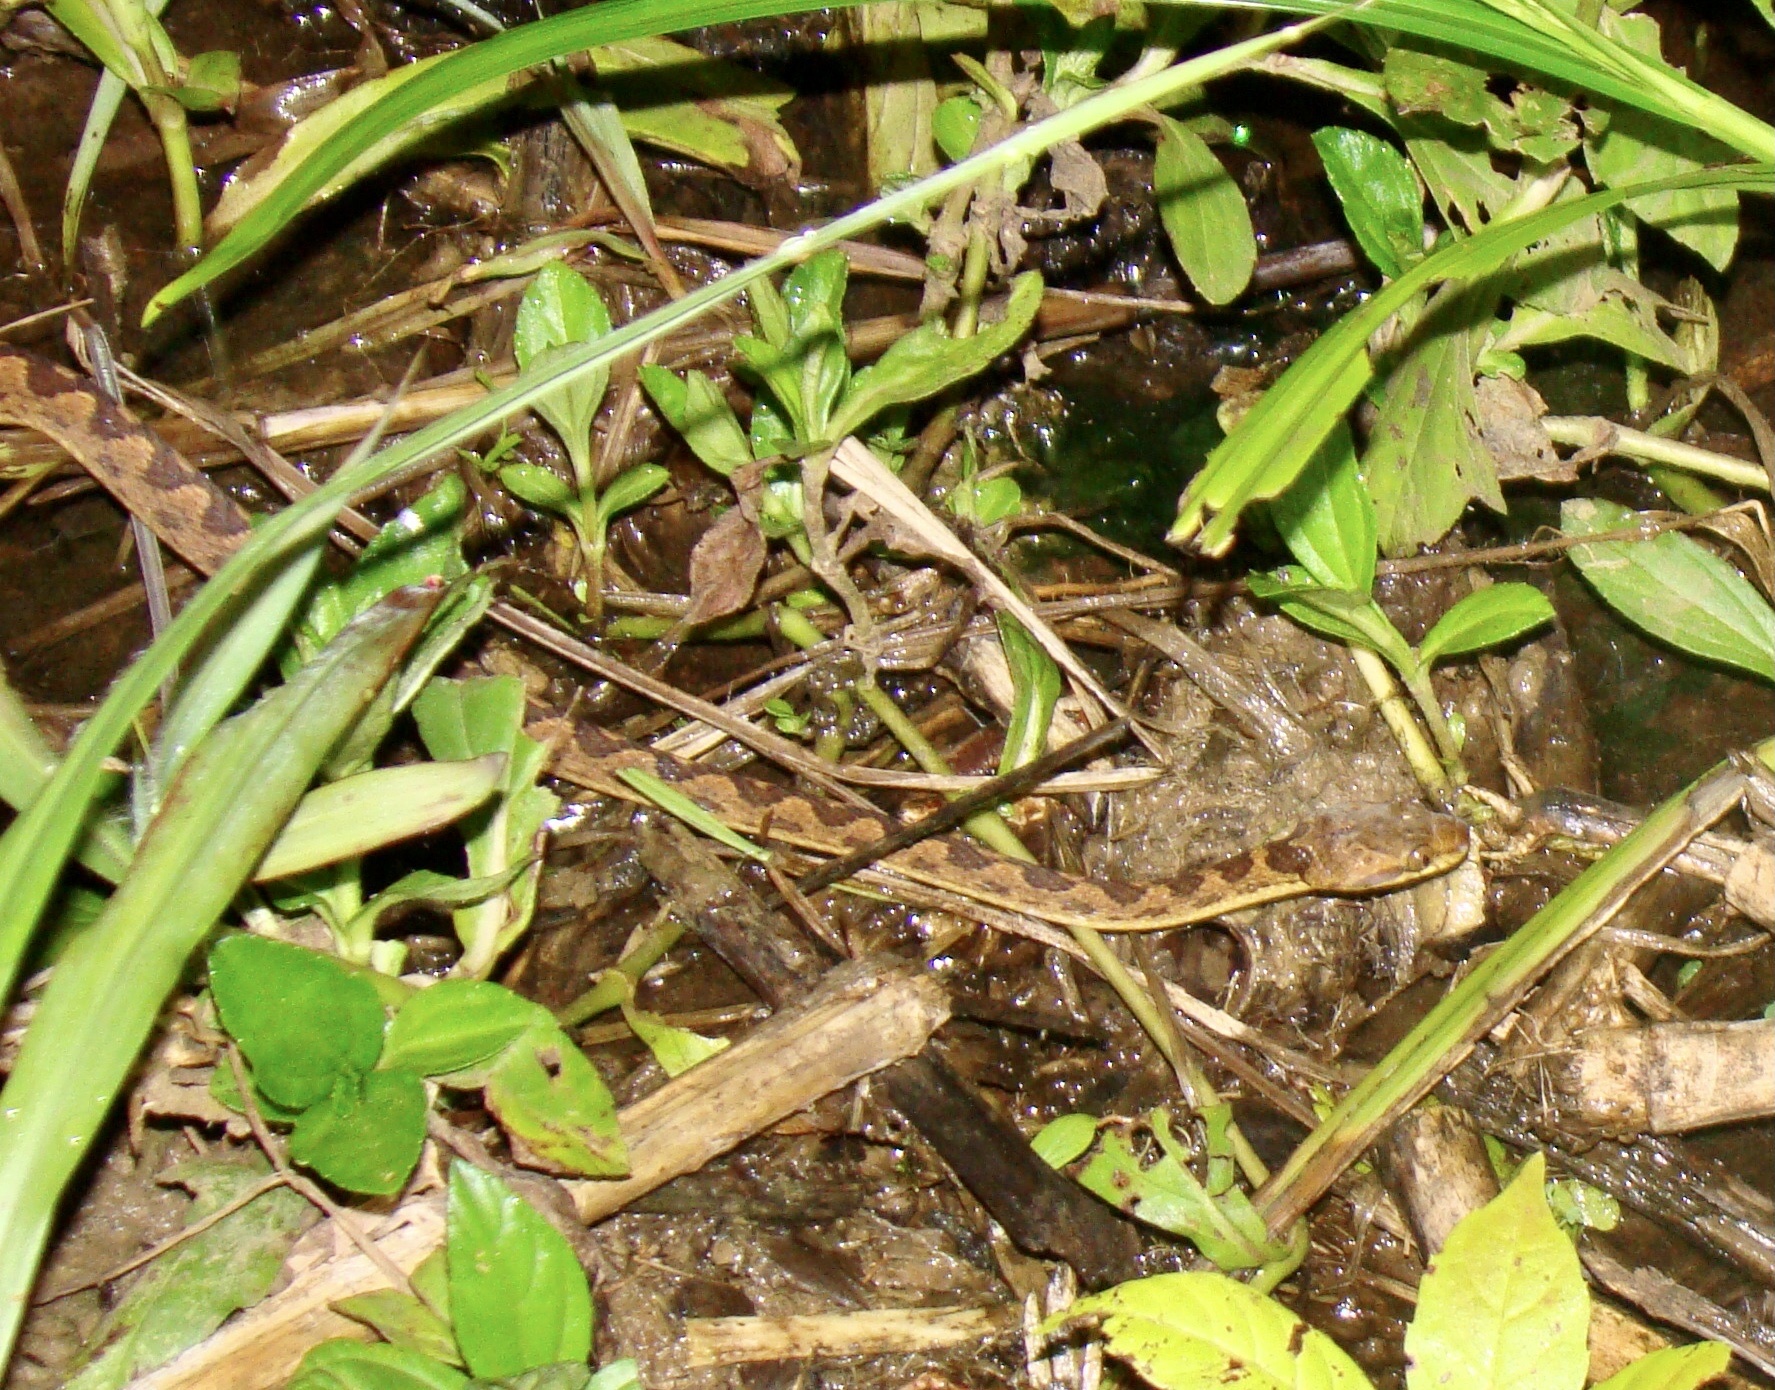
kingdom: Animalia
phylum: Chordata
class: Squamata
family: Colubridae
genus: Leptodeira
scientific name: Leptodeira ornata
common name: Northern cat-eyed snake
